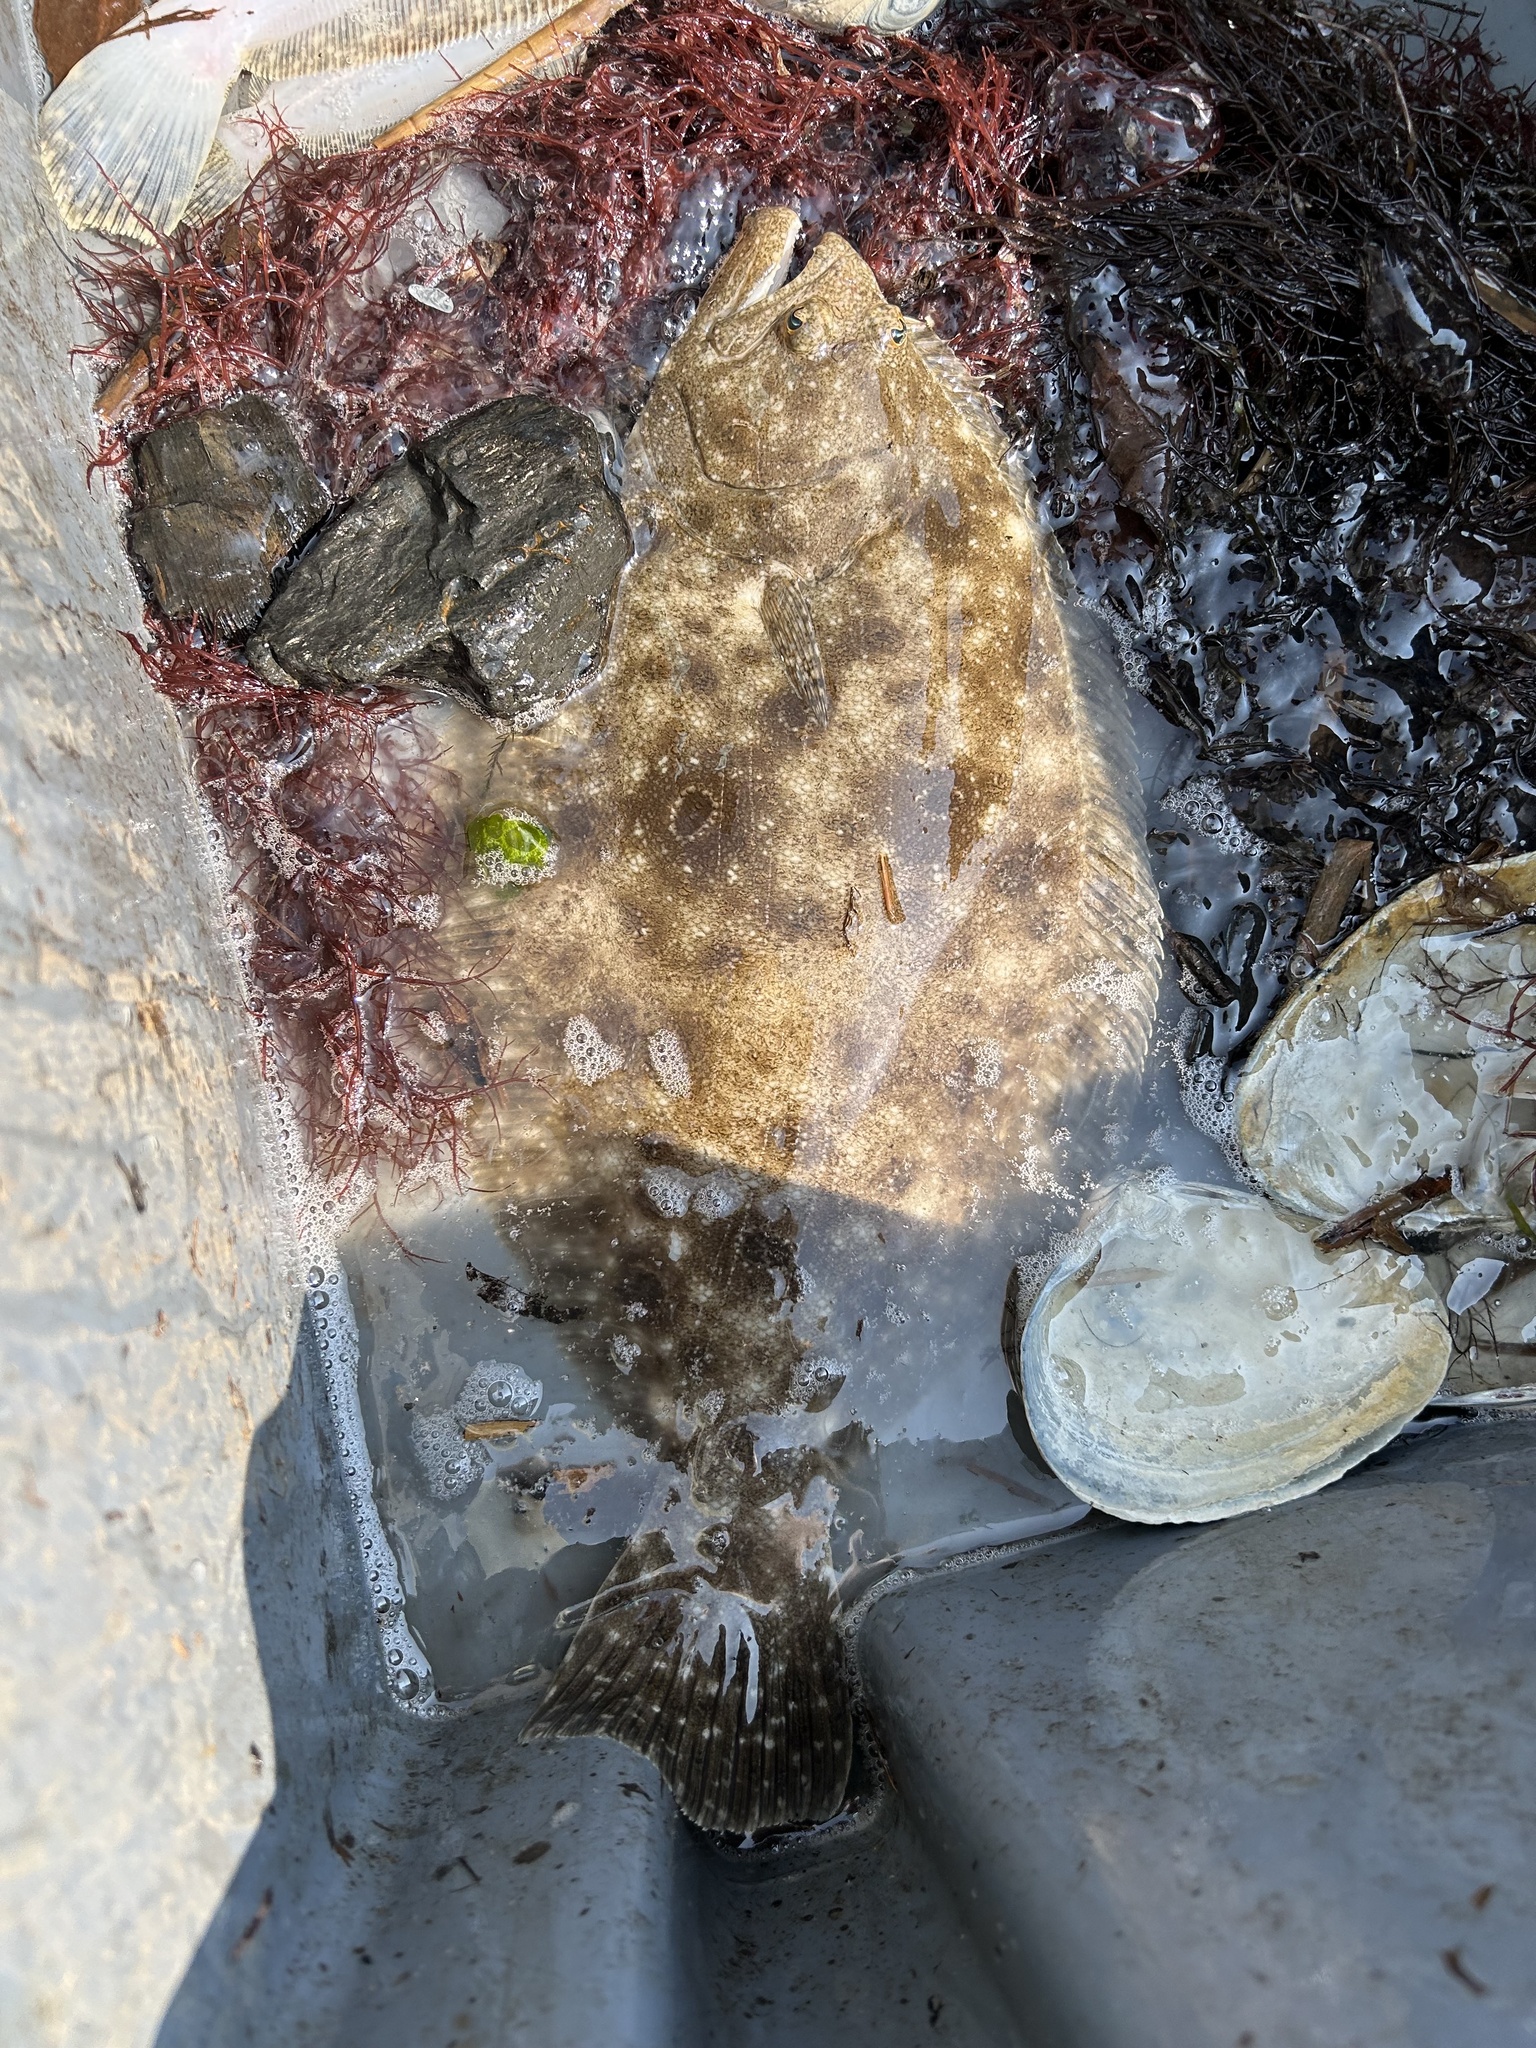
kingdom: Animalia
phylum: Chordata
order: Pleuronectiformes
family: Paralichthyidae
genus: Paralichthys
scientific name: Paralichthys dentatus
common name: Summer flounder
